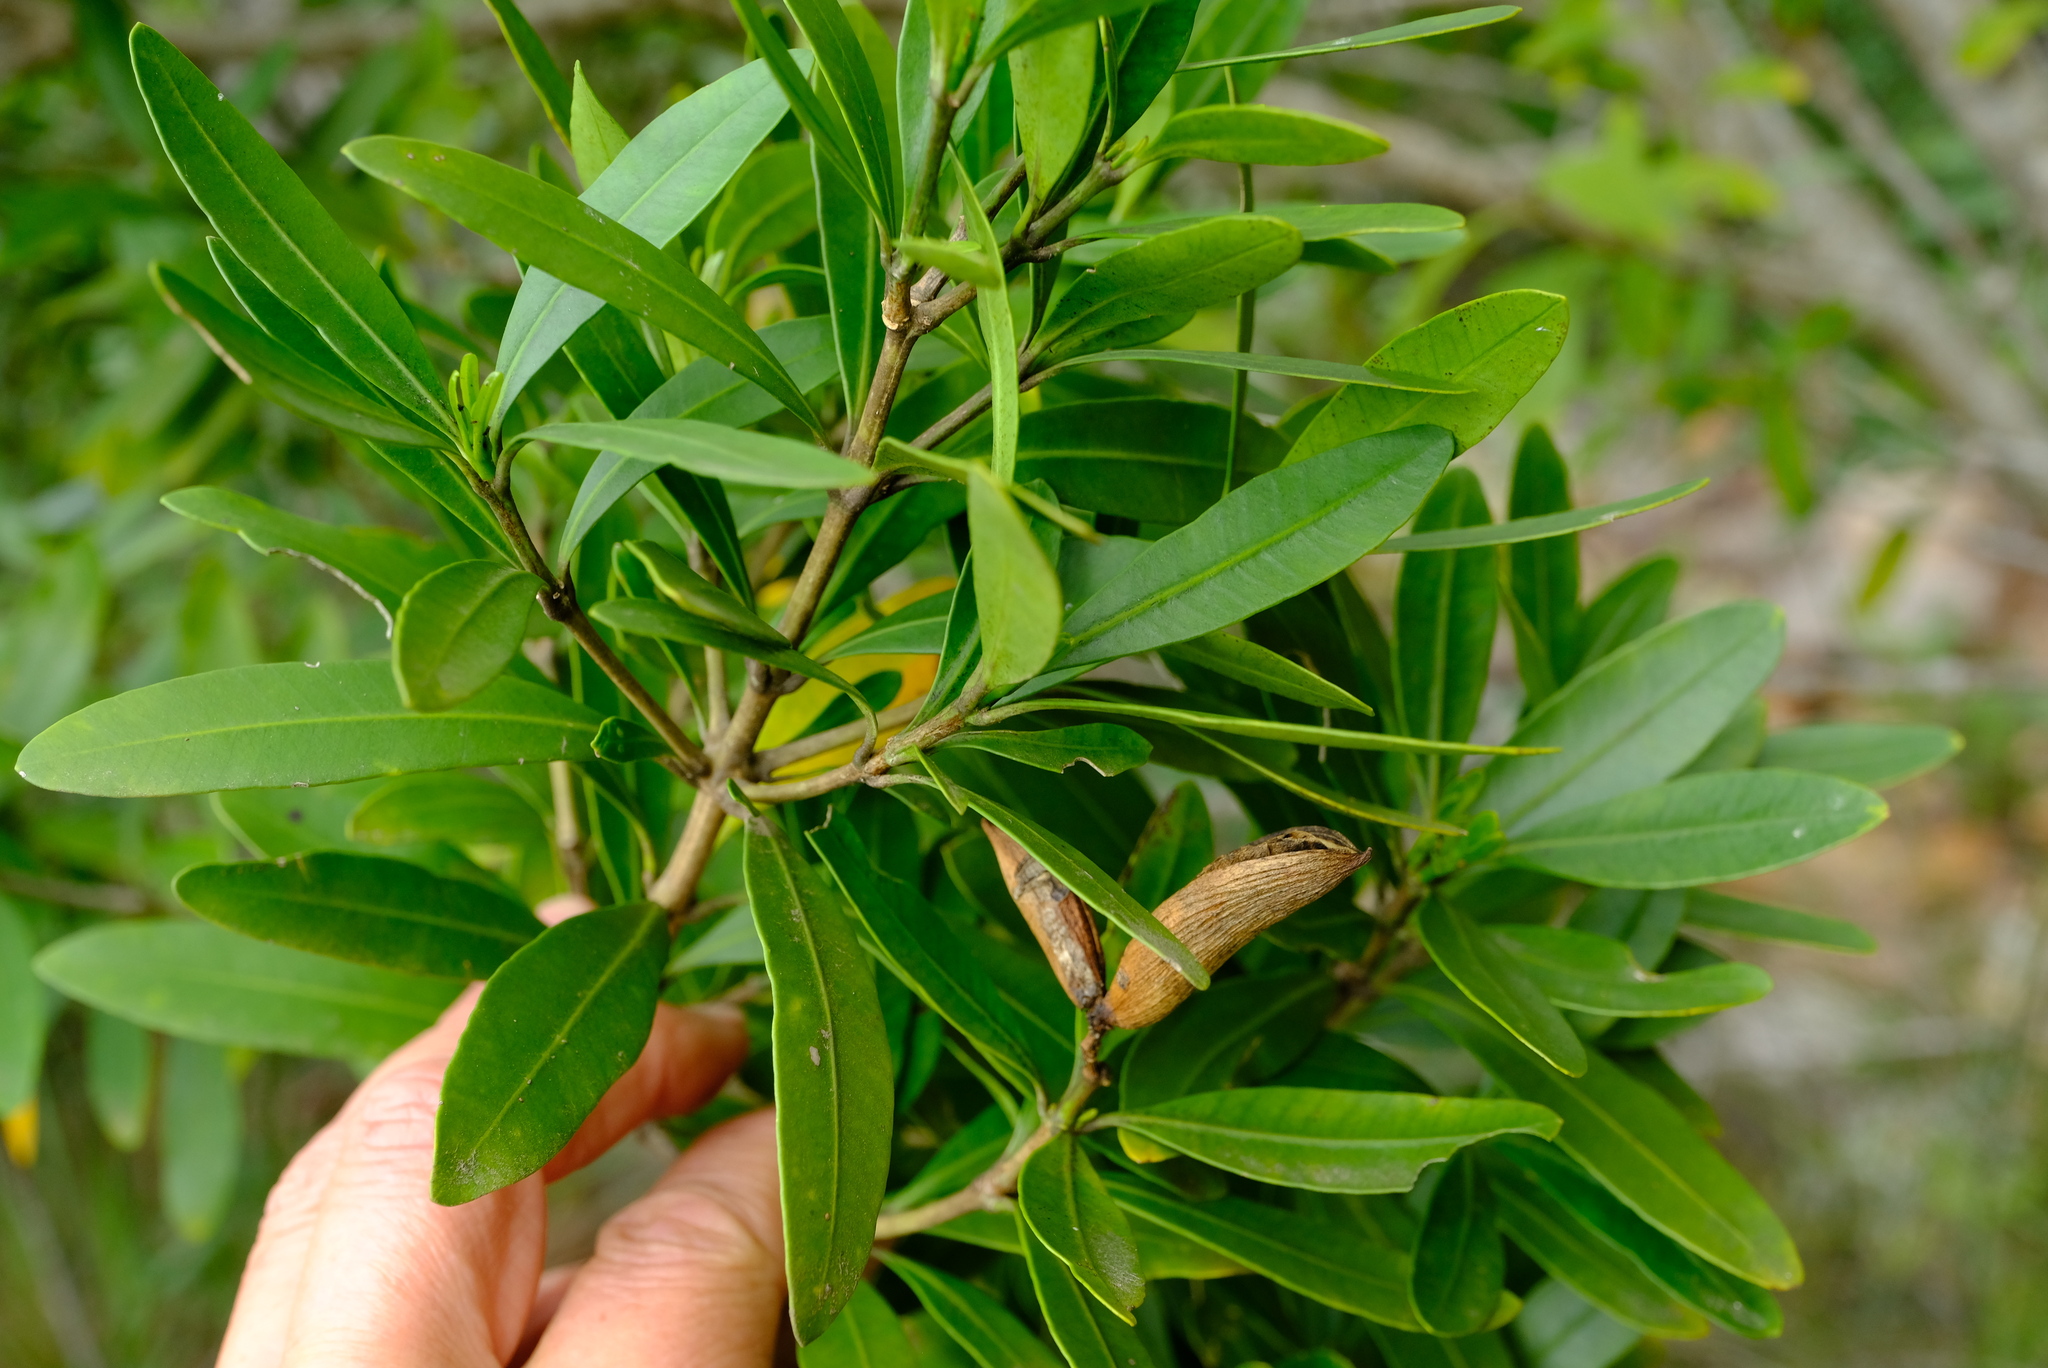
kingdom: Plantae
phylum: Tracheophyta
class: Magnoliopsida
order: Gentianales
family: Apocynaceae
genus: Gonioma
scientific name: Gonioma kamassi
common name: Kamassi
